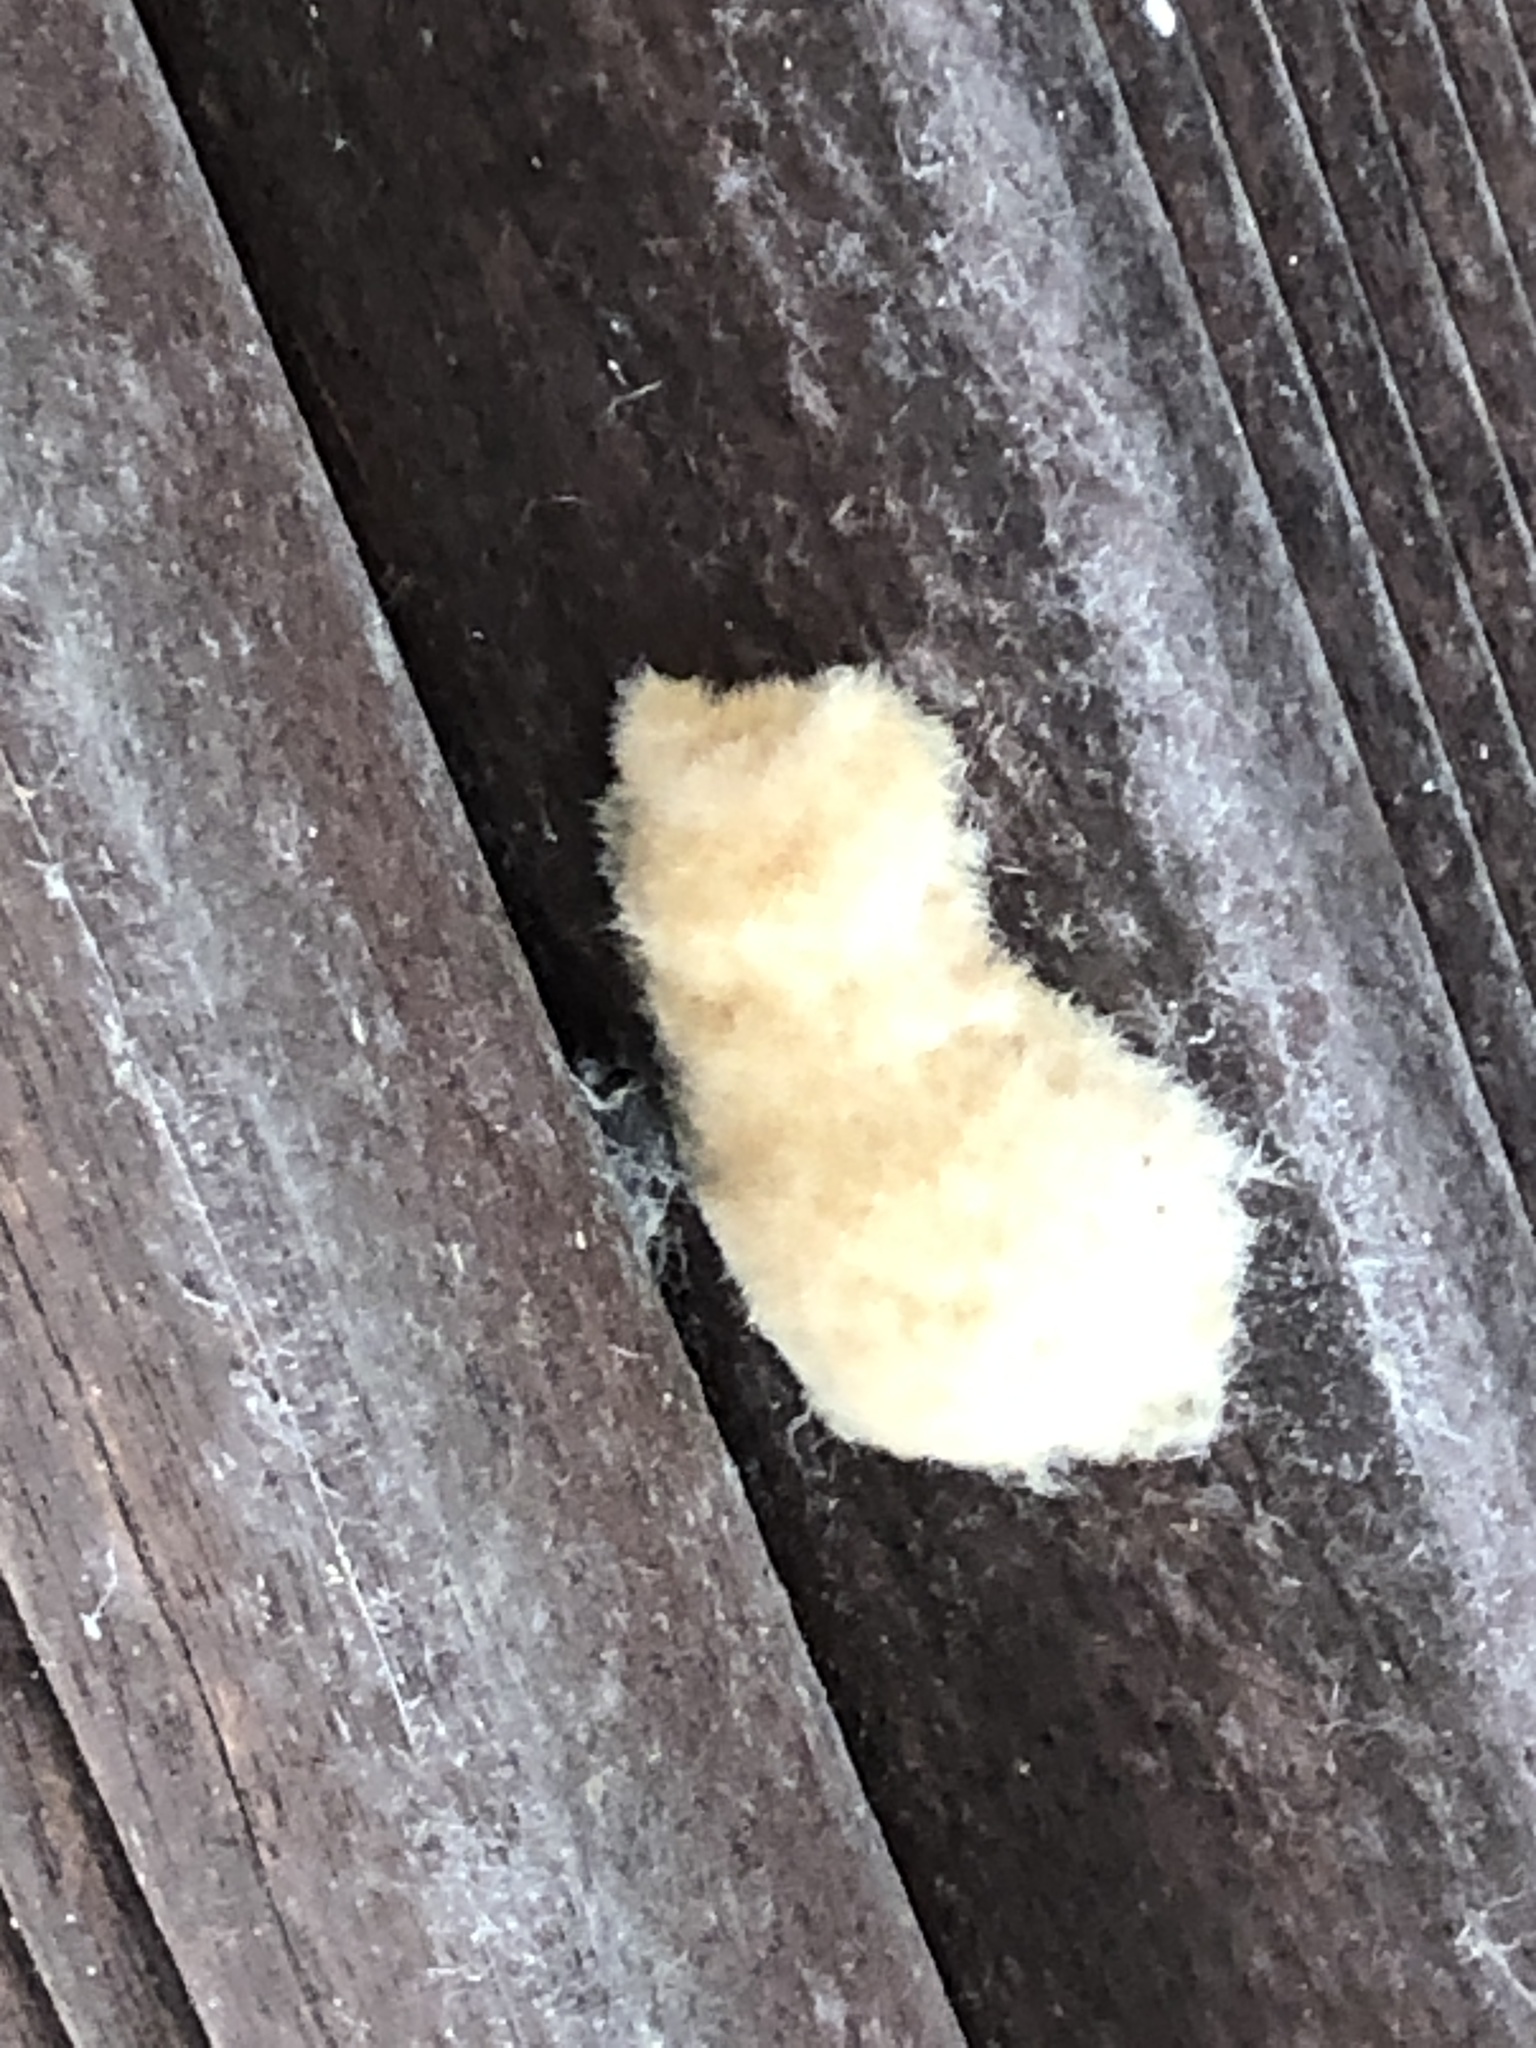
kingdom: Animalia
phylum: Arthropoda
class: Insecta
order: Lepidoptera
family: Erebidae
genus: Lymantria
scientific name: Lymantria dispar
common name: Gypsy moth
